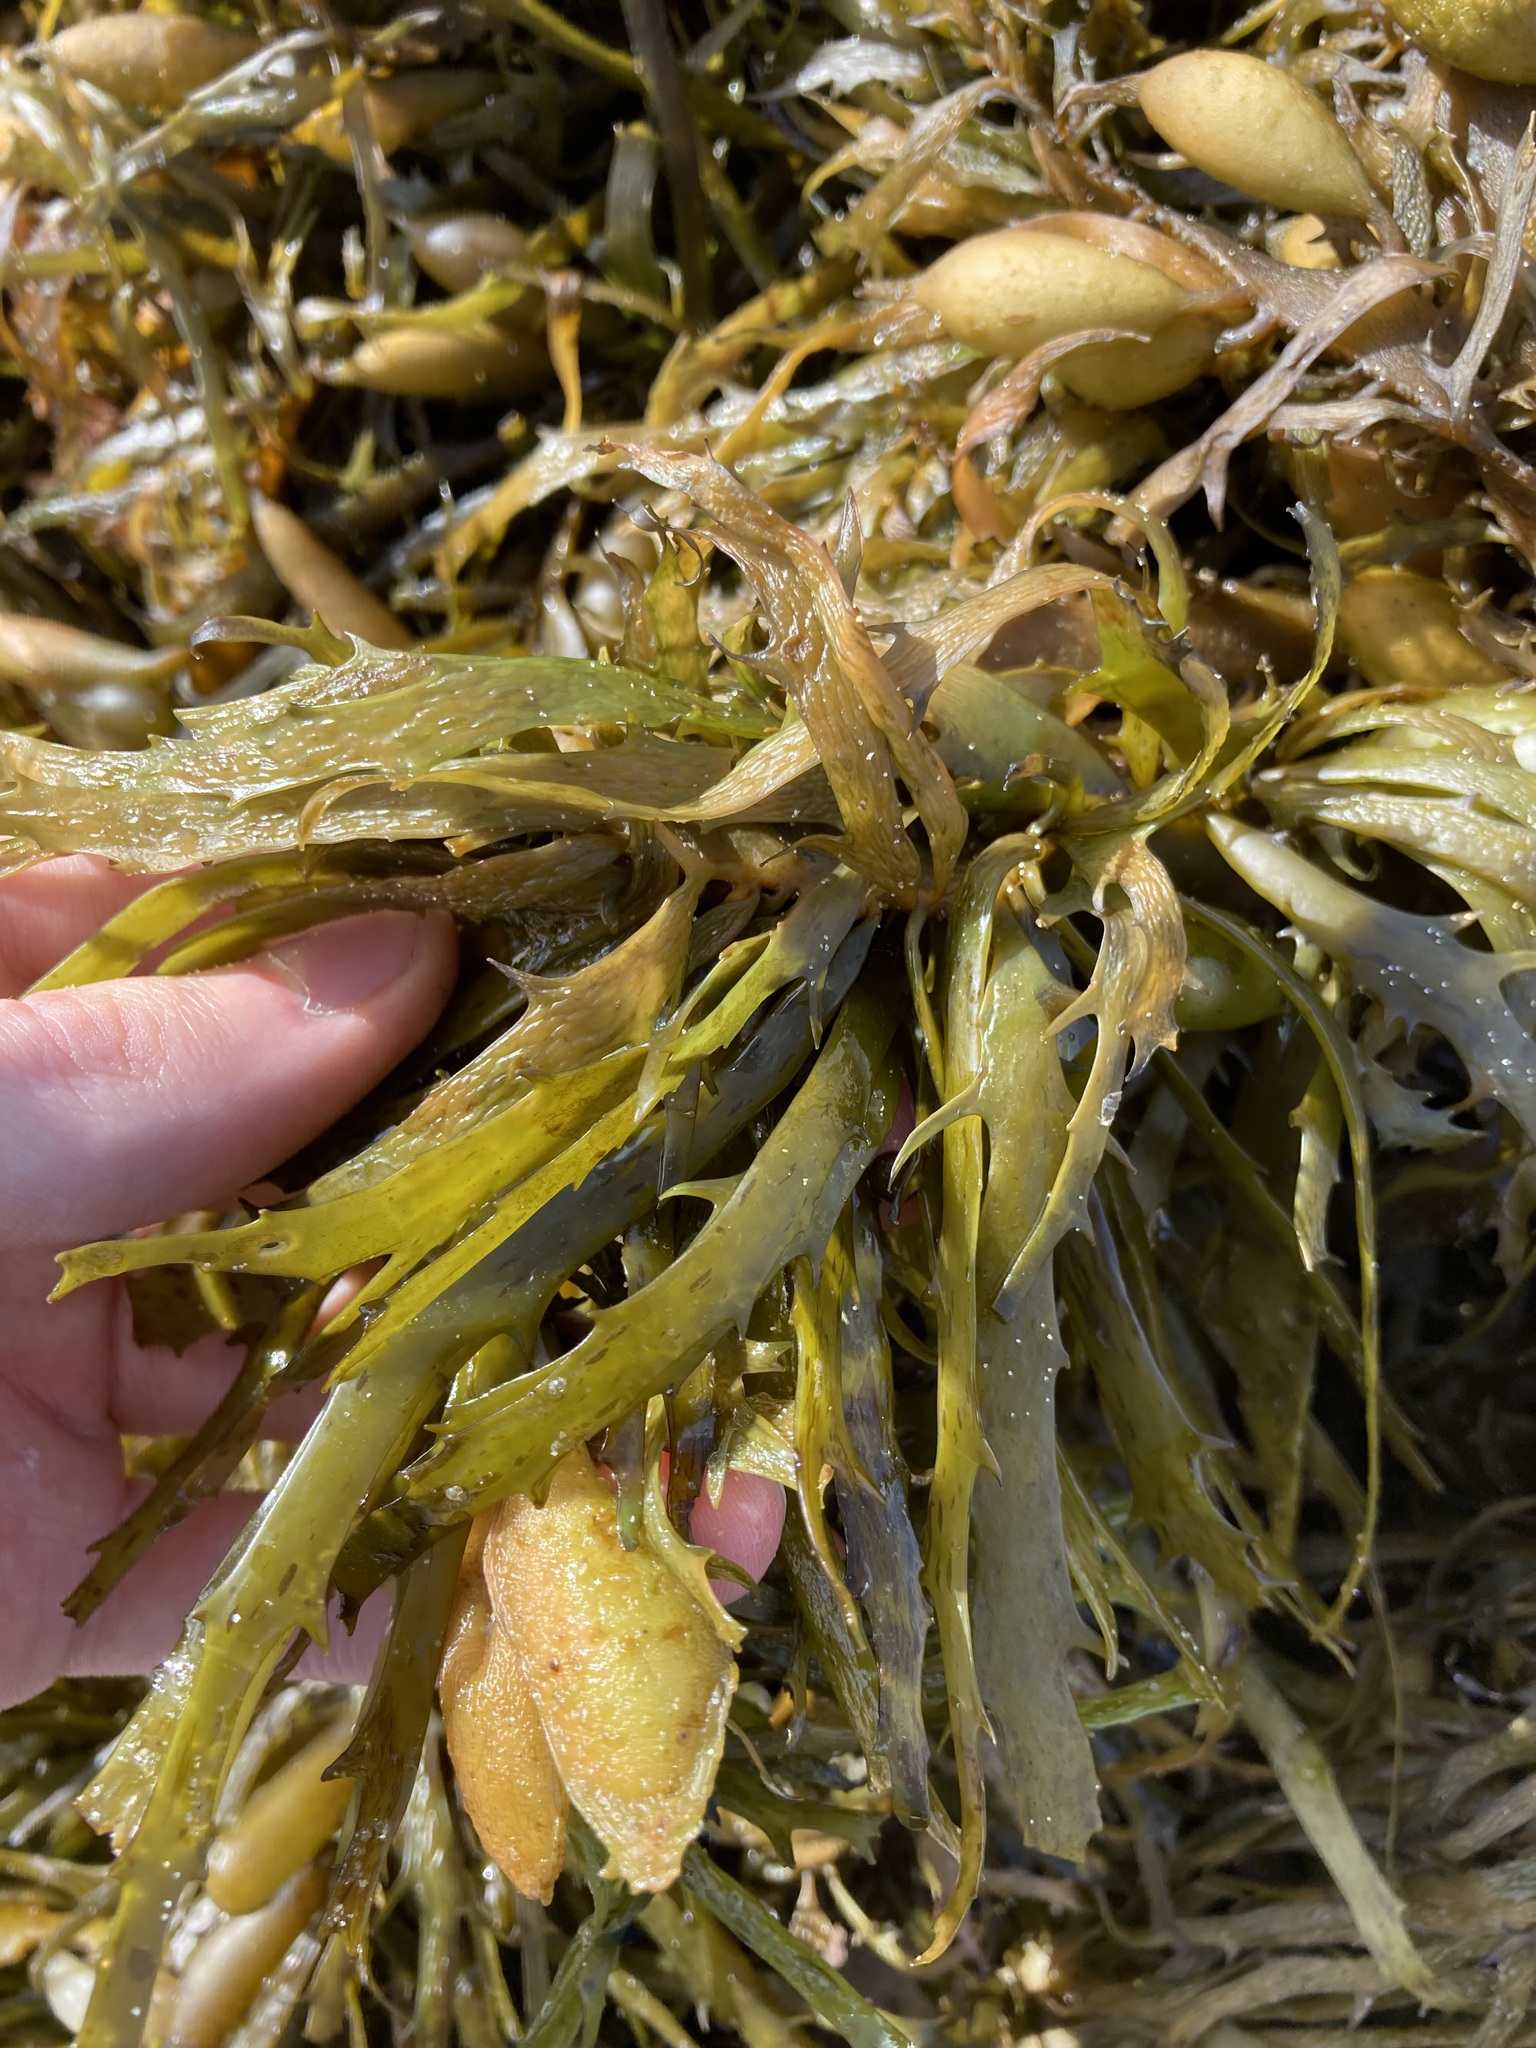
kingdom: Chromista
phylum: Ochrophyta
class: Phaeophyceae
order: Fucales
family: Seirococcaceae
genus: Phyllospora
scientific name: Phyllospora
